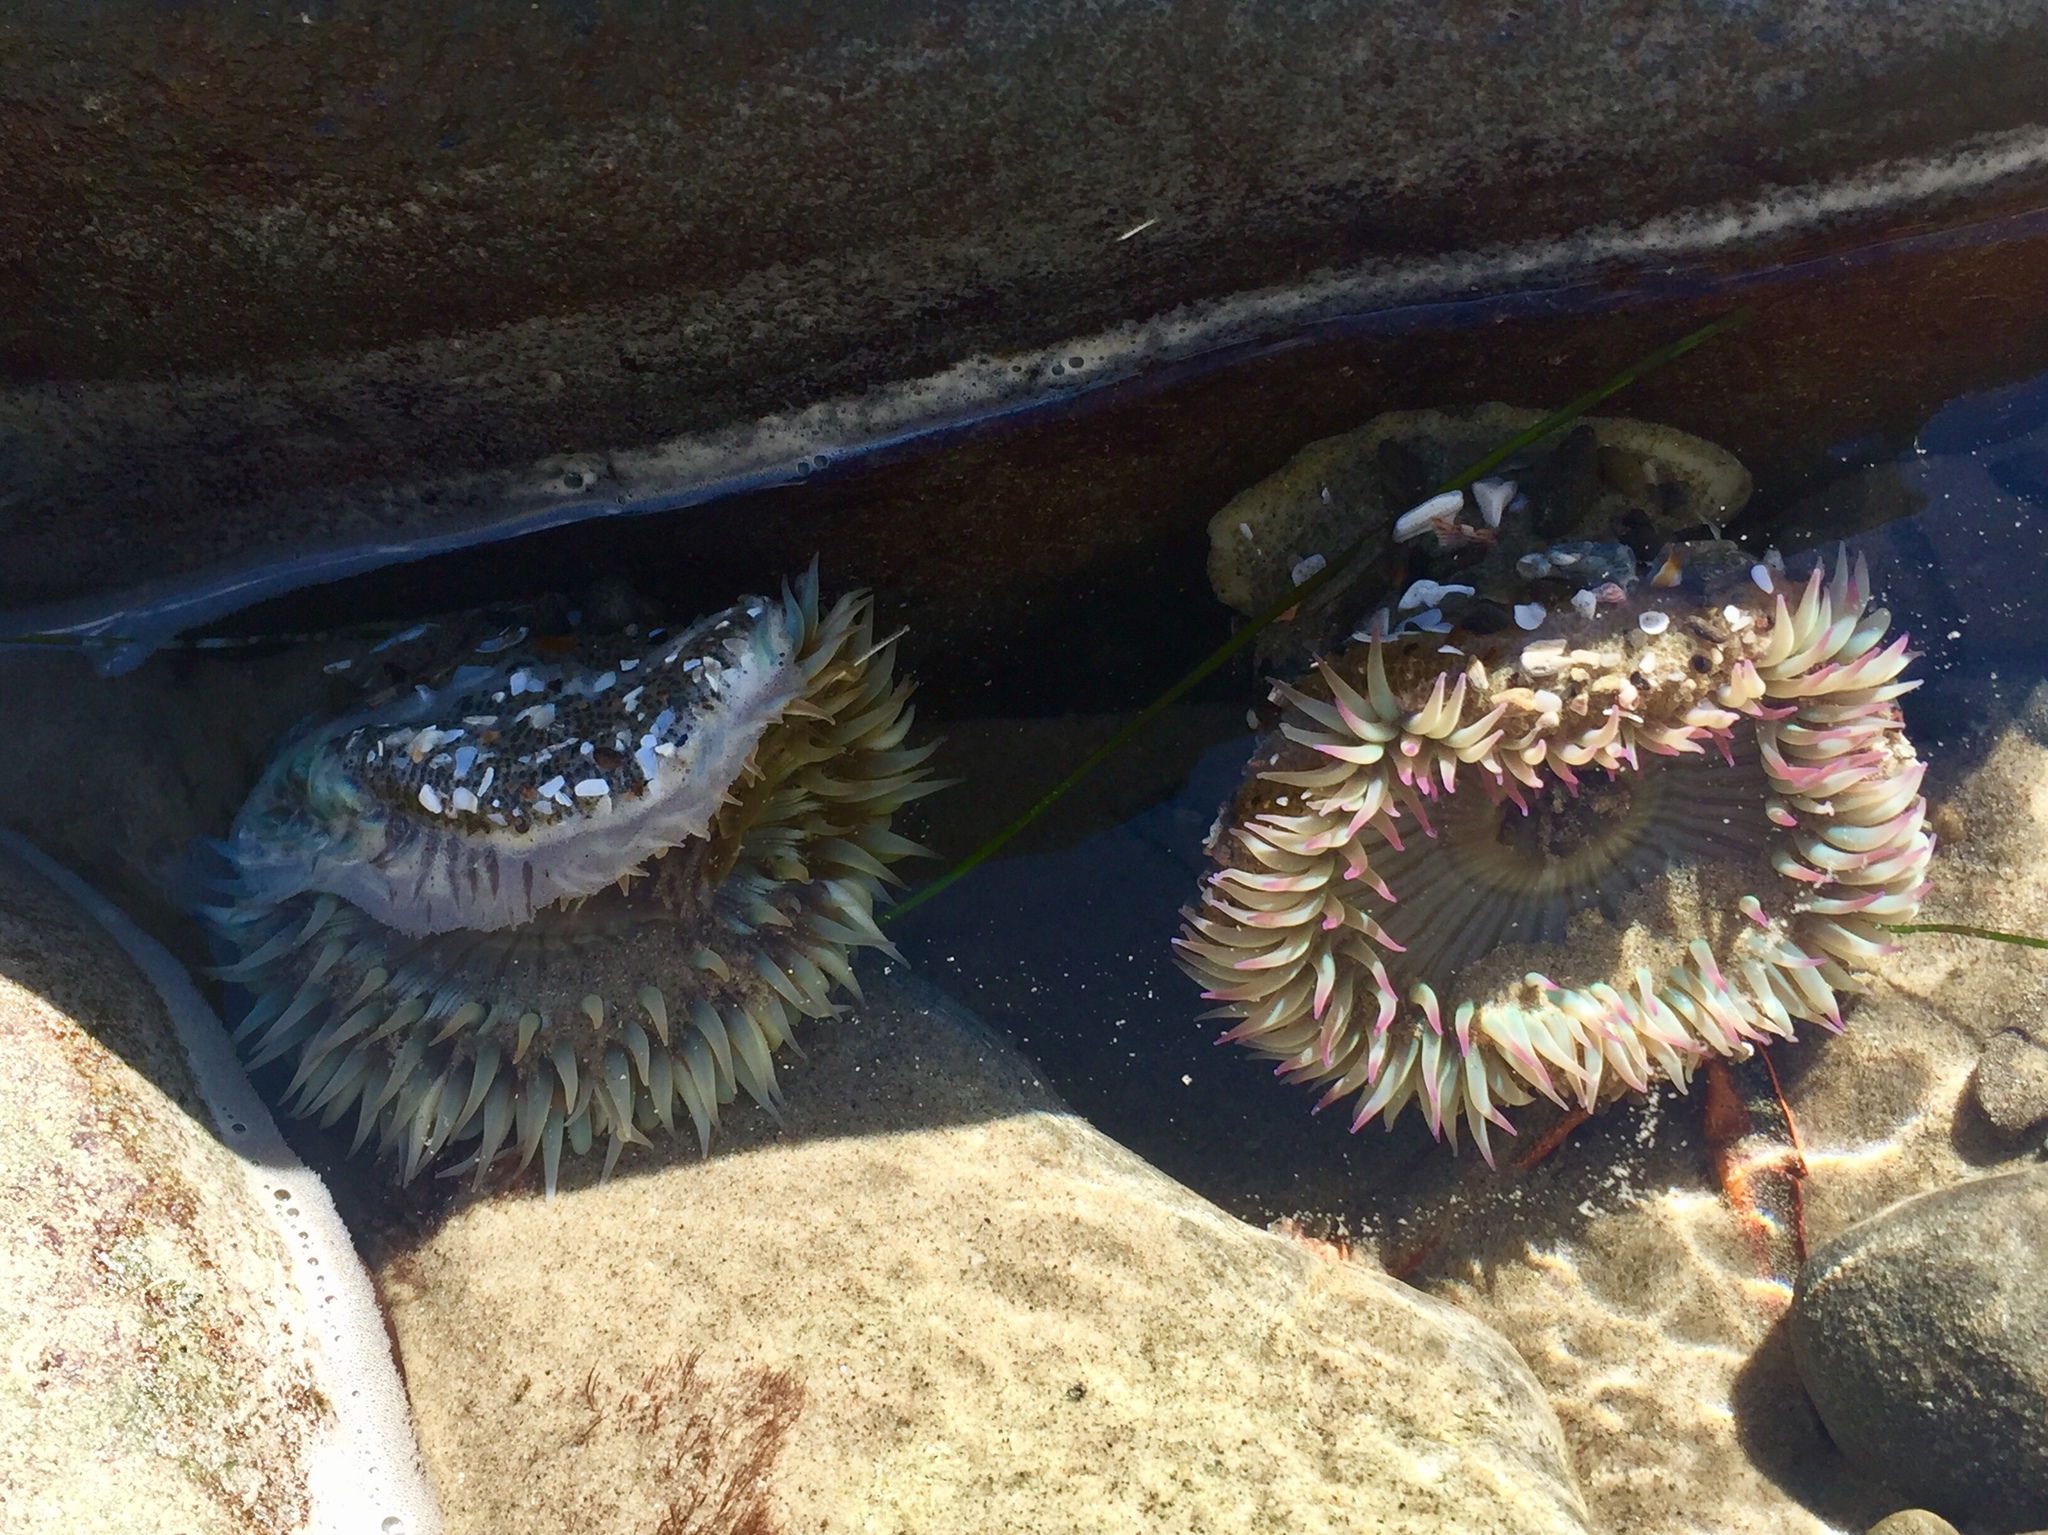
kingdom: Animalia
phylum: Cnidaria
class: Anthozoa
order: Actiniaria
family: Actiniidae
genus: Anthopleura
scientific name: Anthopleura elegantissima
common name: Clonal anemone
